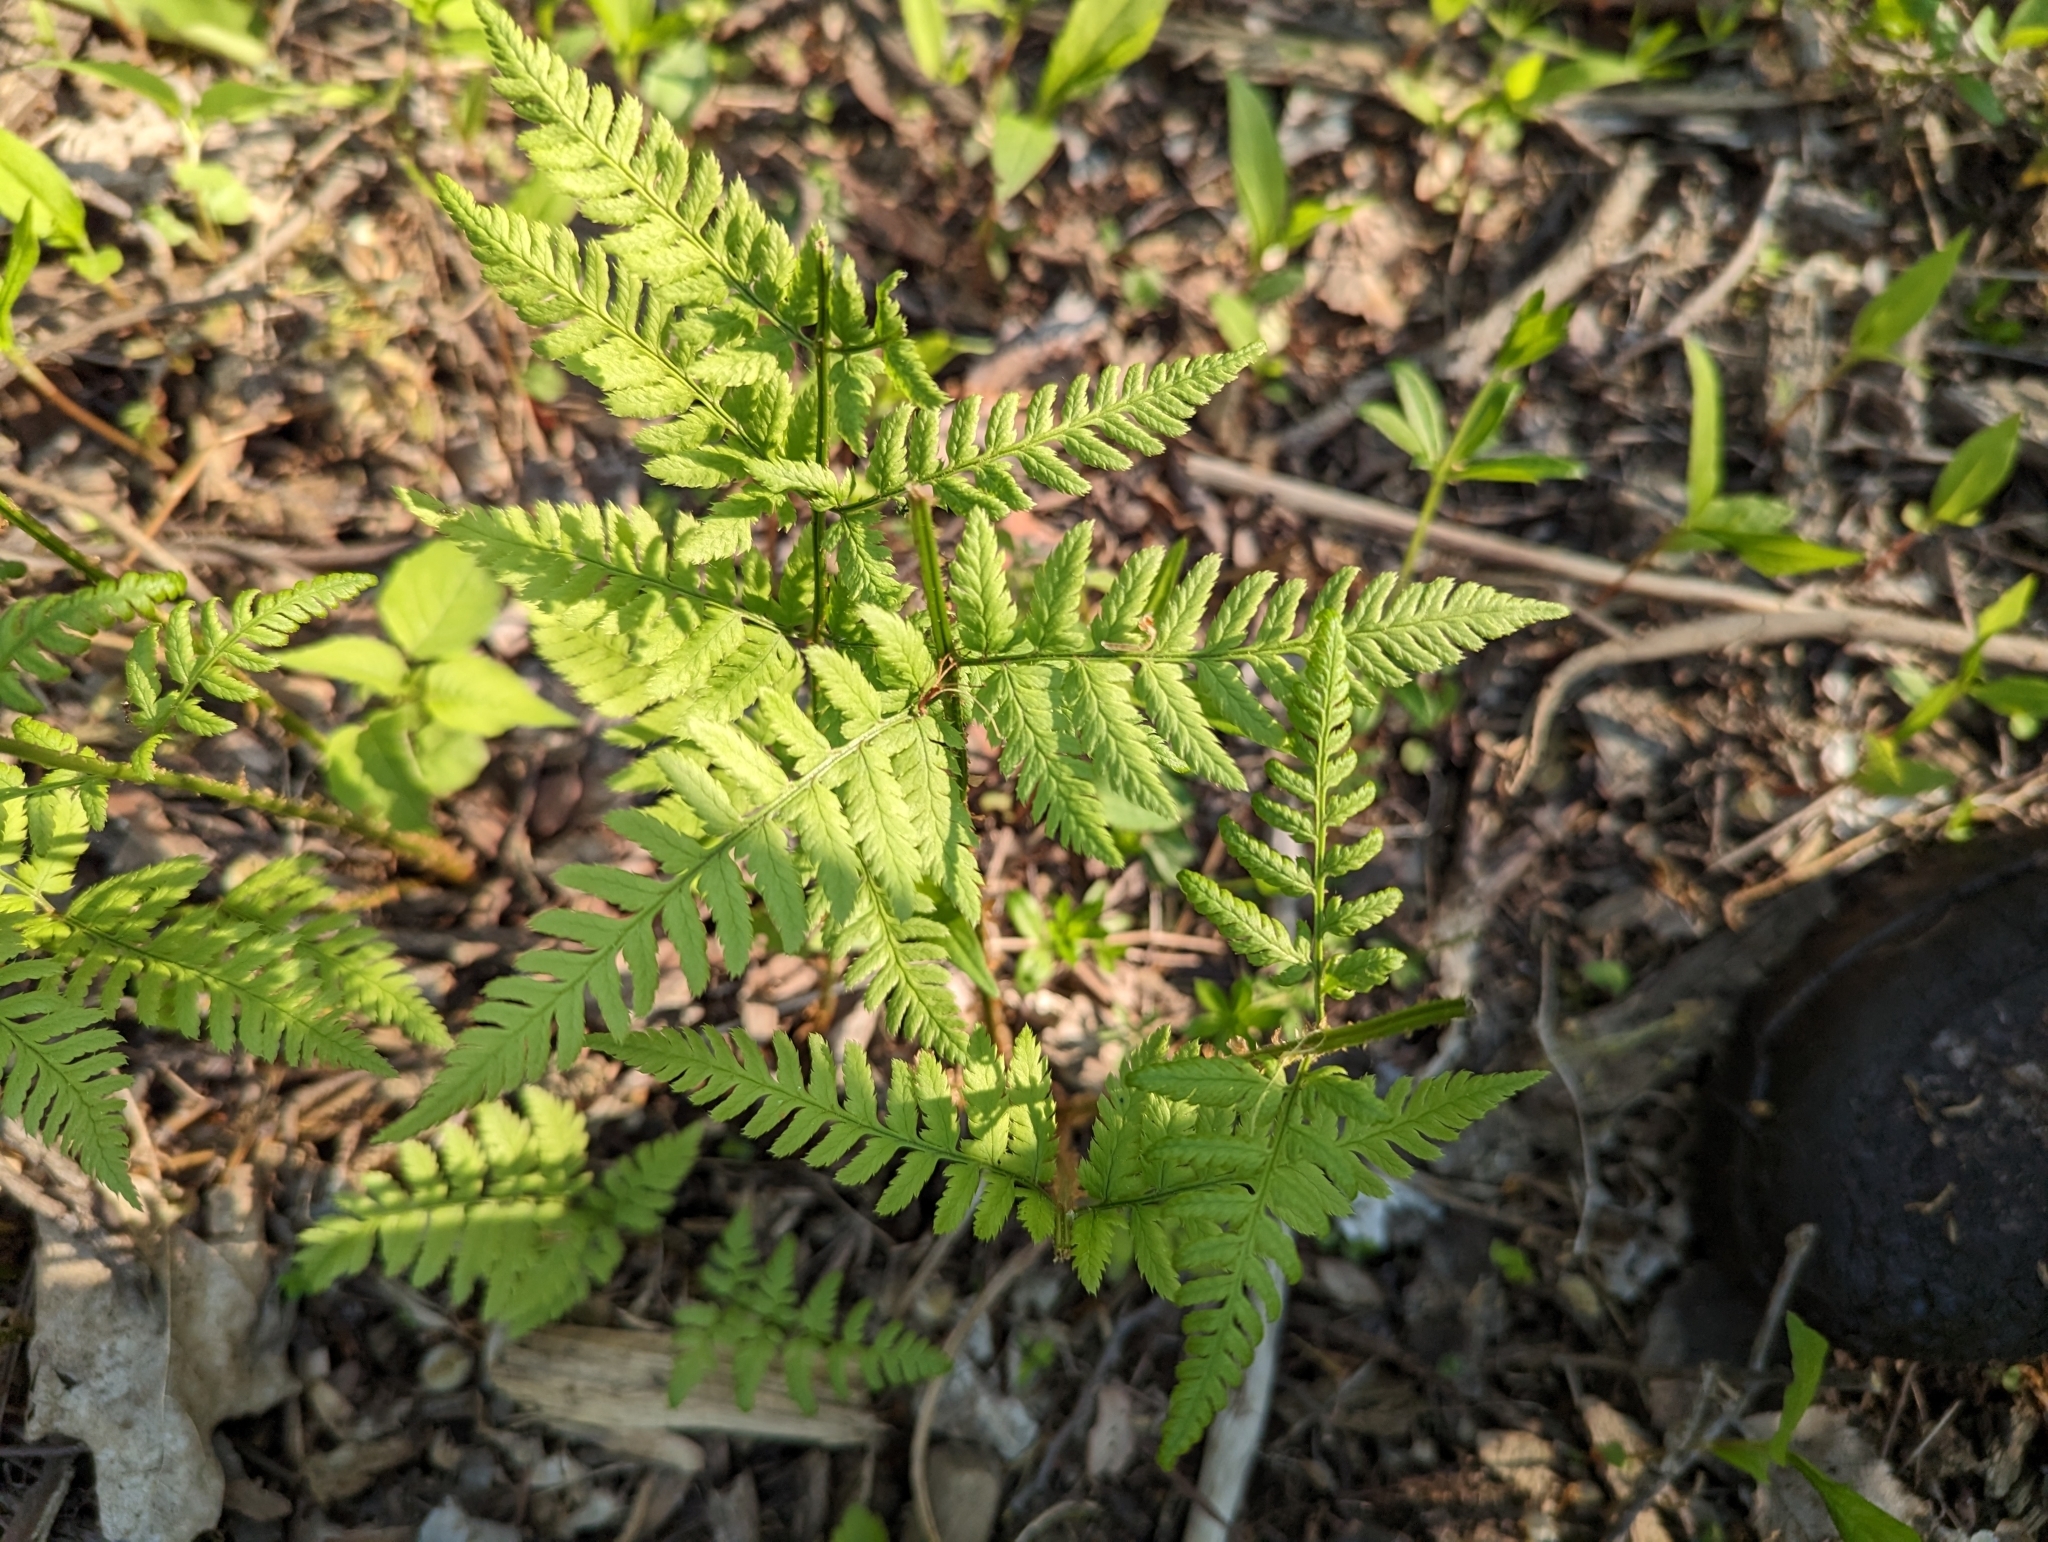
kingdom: Plantae
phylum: Tracheophyta
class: Polypodiopsida
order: Polypodiales
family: Dryopteridaceae
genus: Dryopteris
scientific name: Dryopteris carthusiana
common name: Narrow buckler-fern
